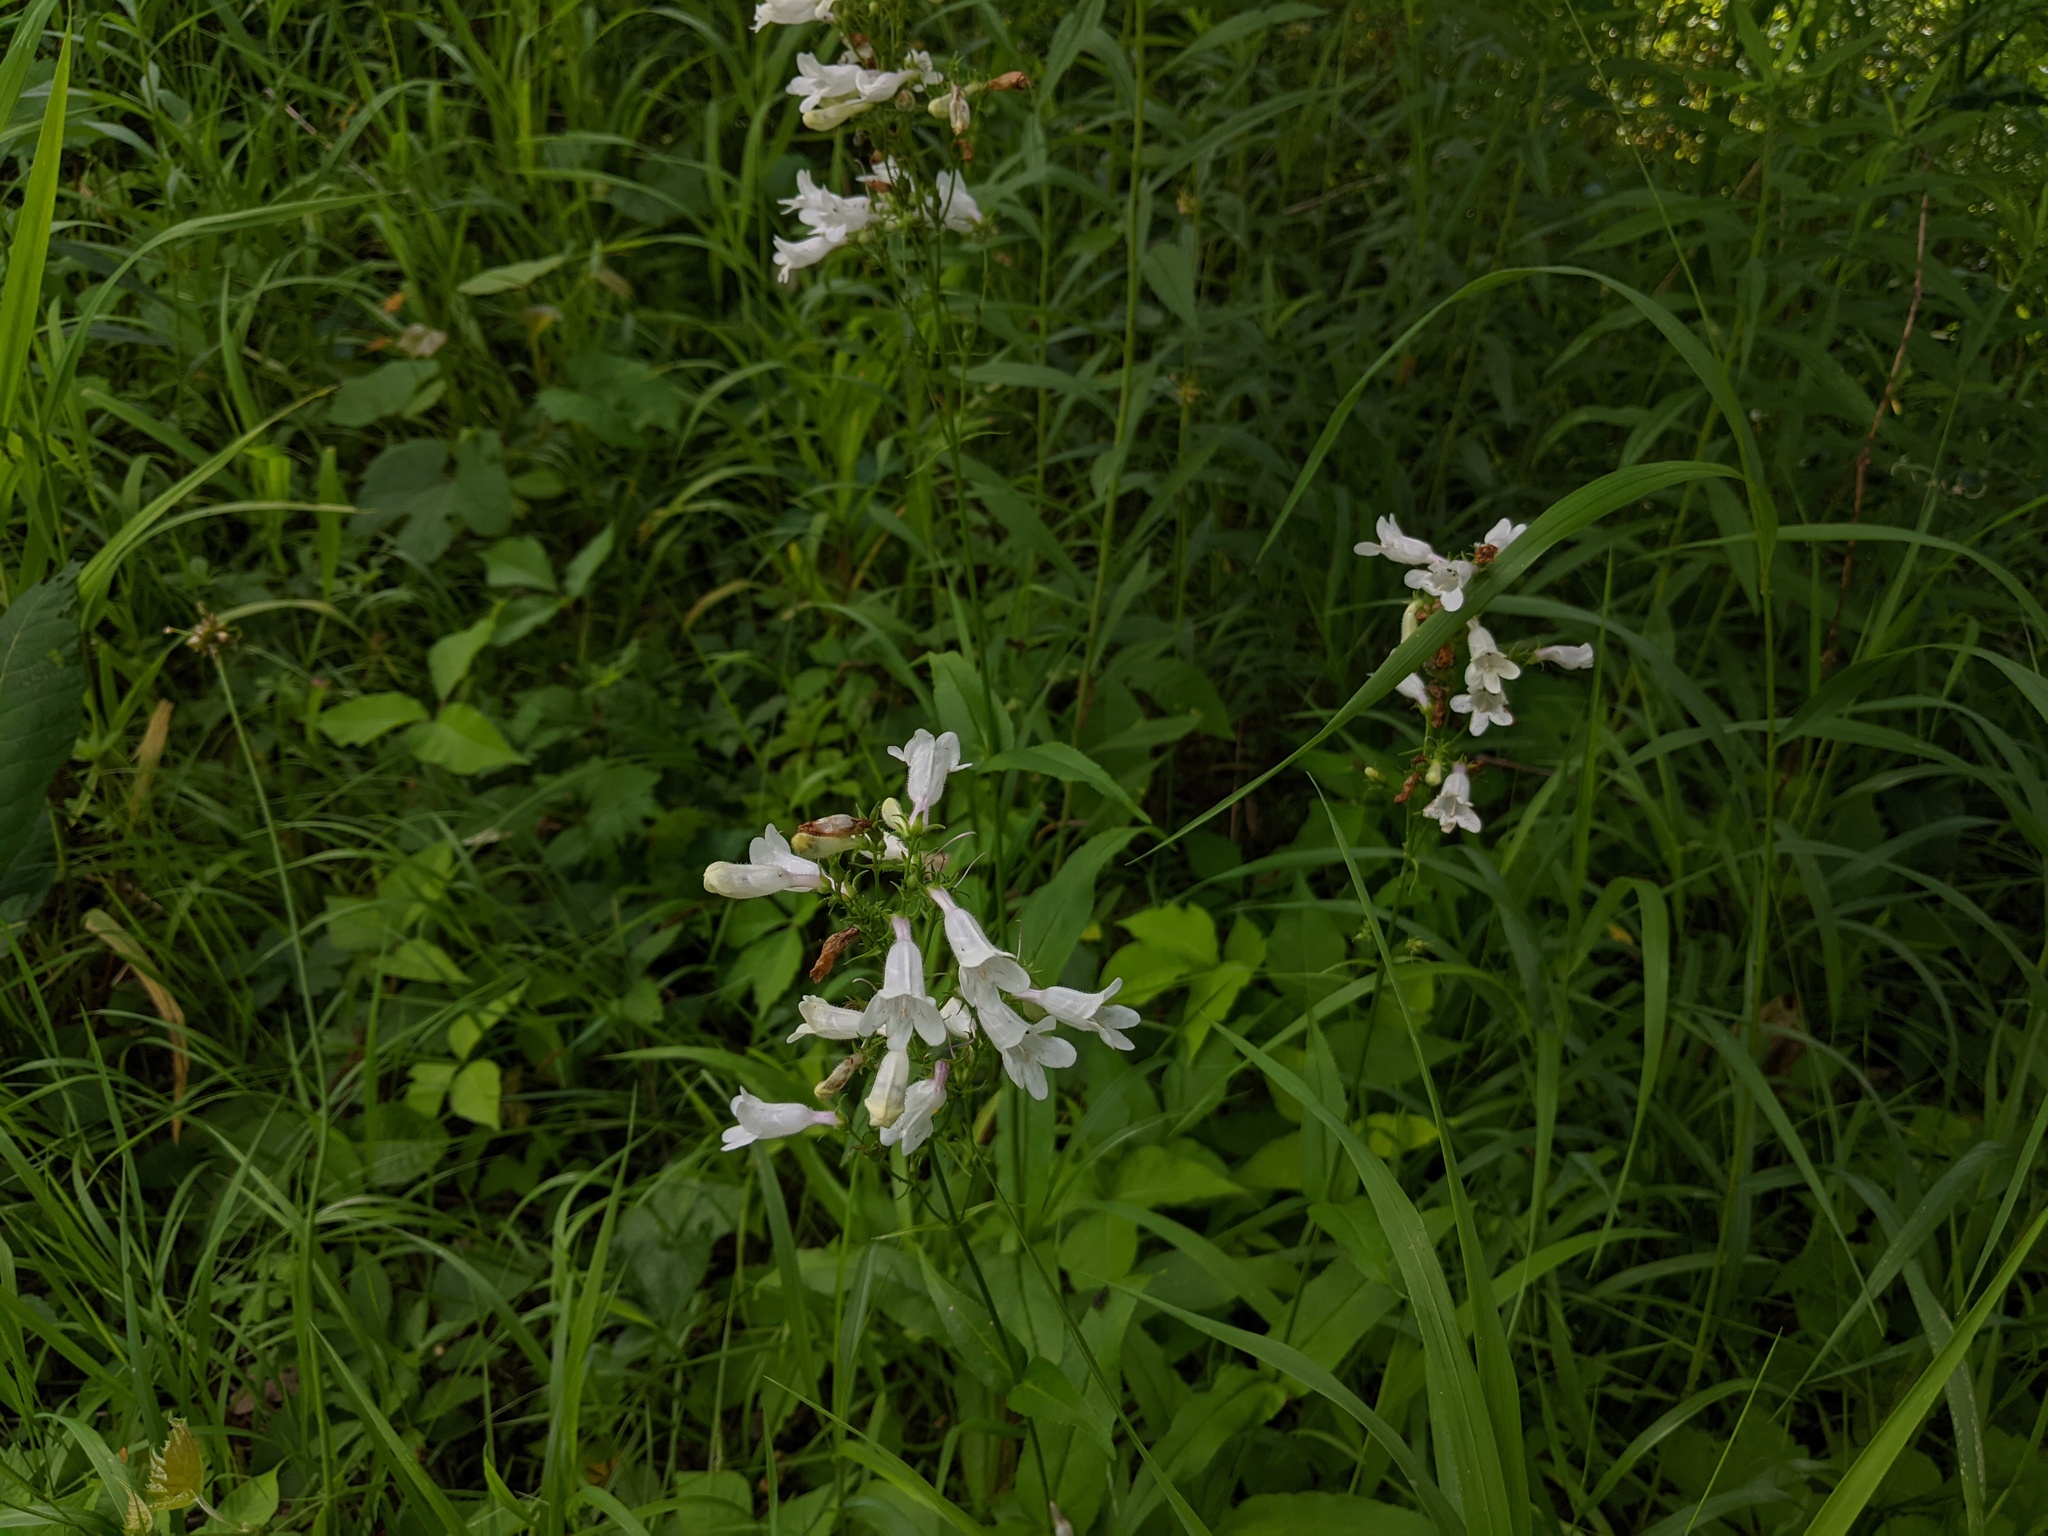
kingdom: Plantae
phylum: Tracheophyta
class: Magnoliopsida
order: Lamiales
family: Plantaginaceae
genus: Penstemon
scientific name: Penstemon digitalis
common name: Foxglove beardtongue
